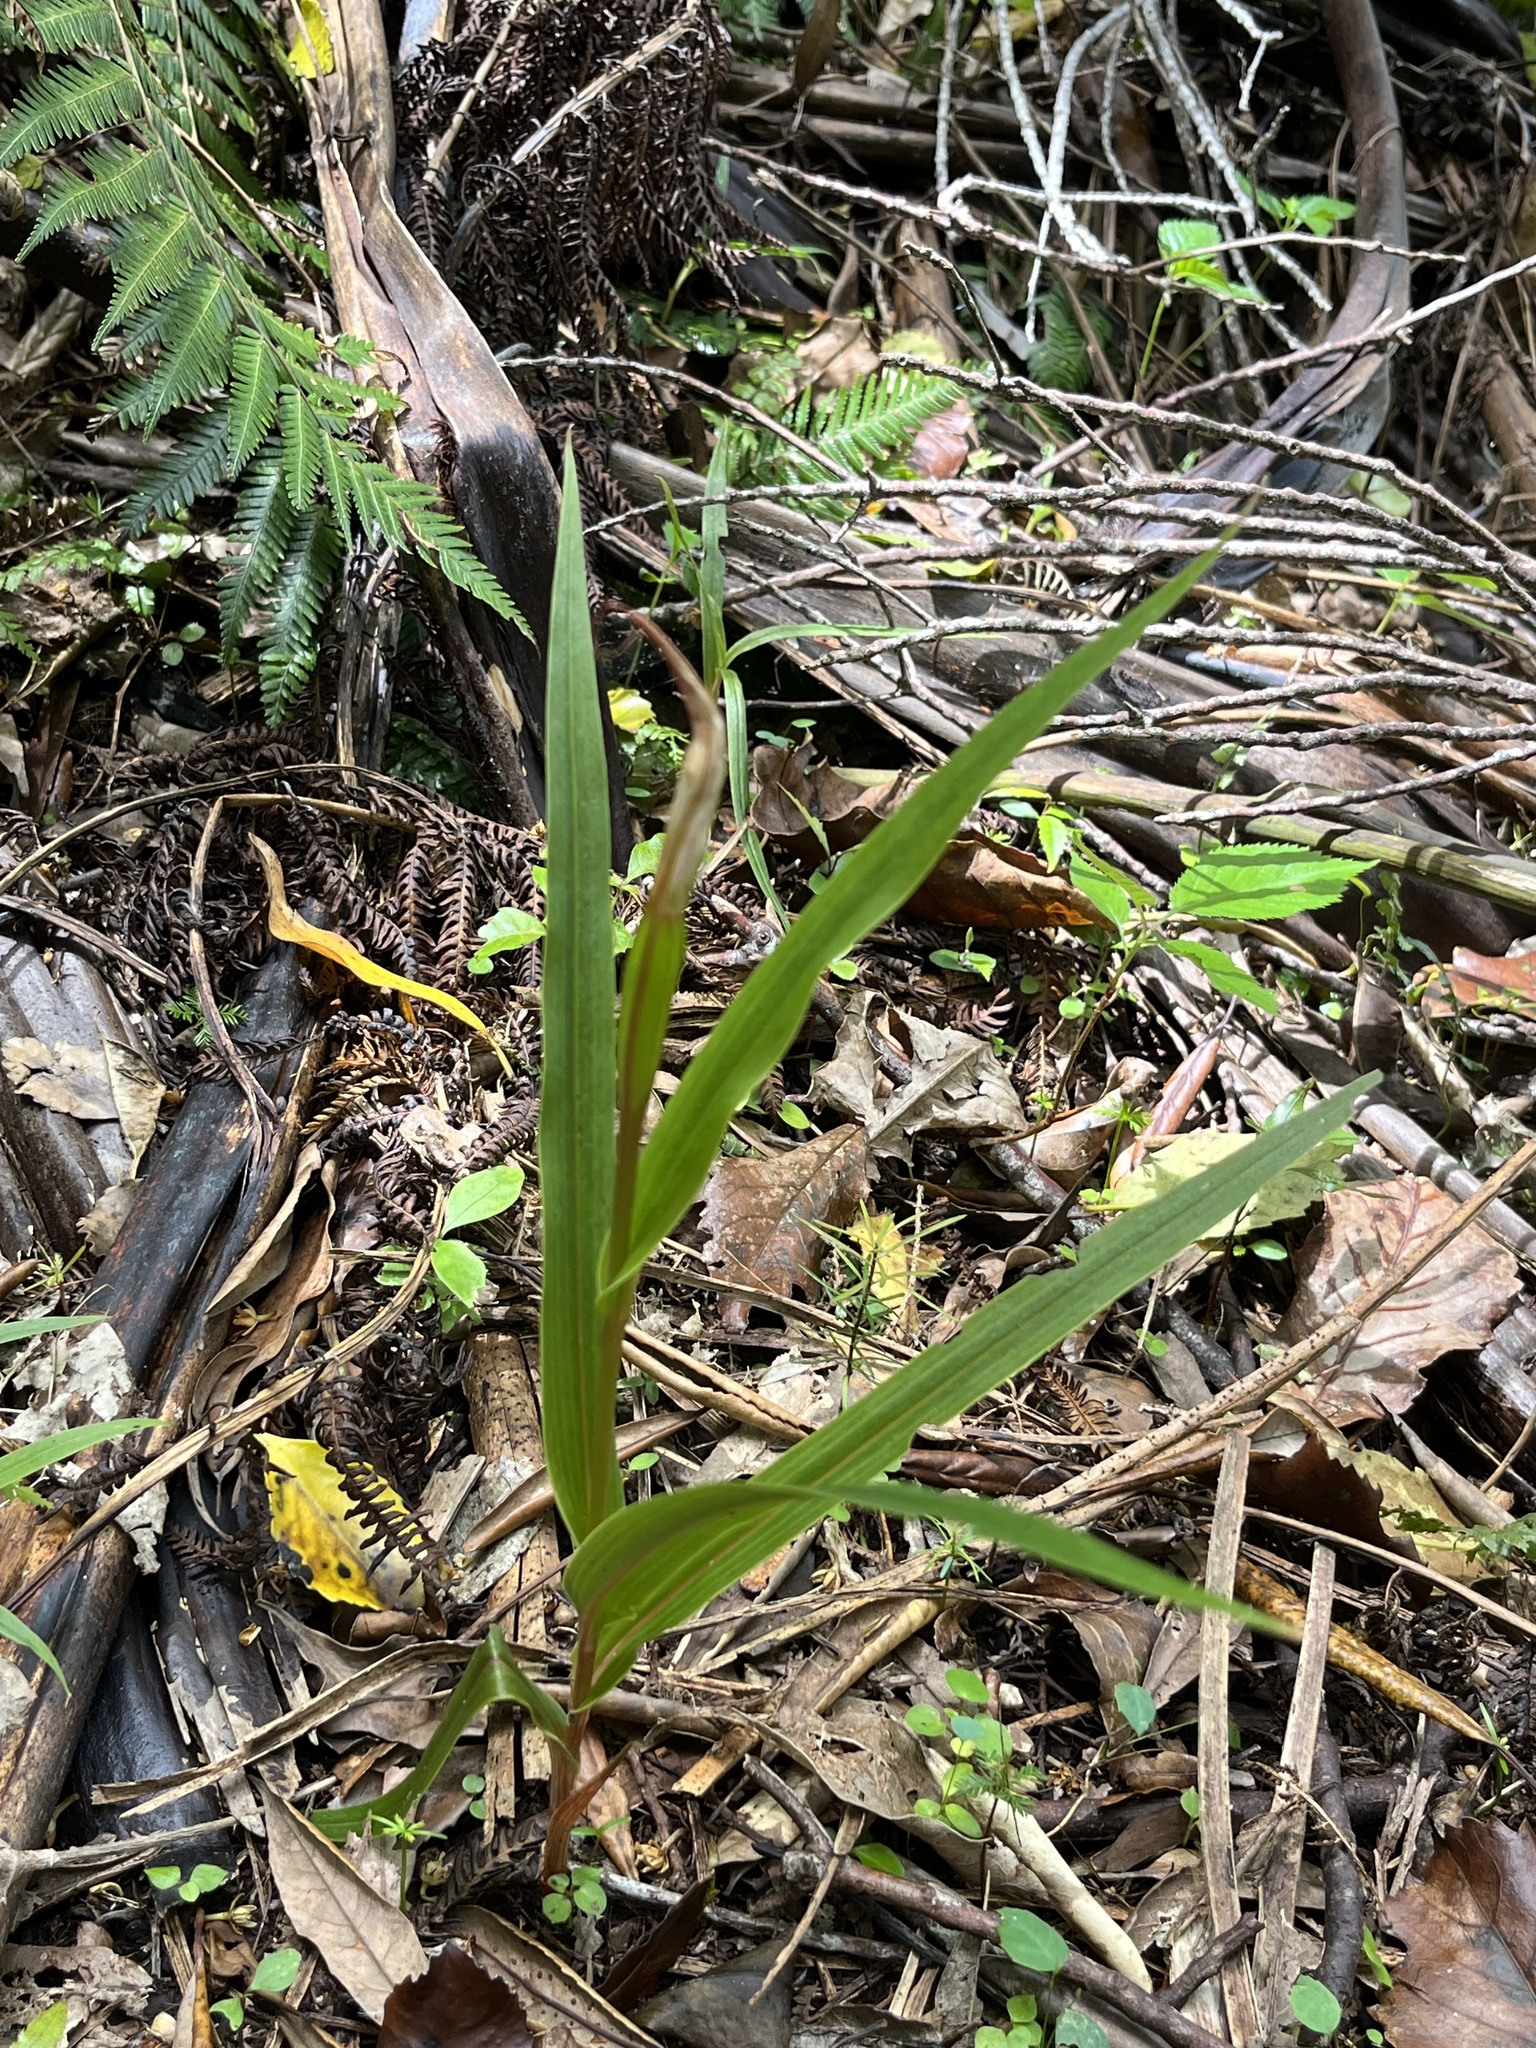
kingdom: Plantae
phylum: Tracheophyta
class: Liliopsida
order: Asparagales
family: Orchidaceae
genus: Pterostylis
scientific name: Pterostylis cardiostigma
